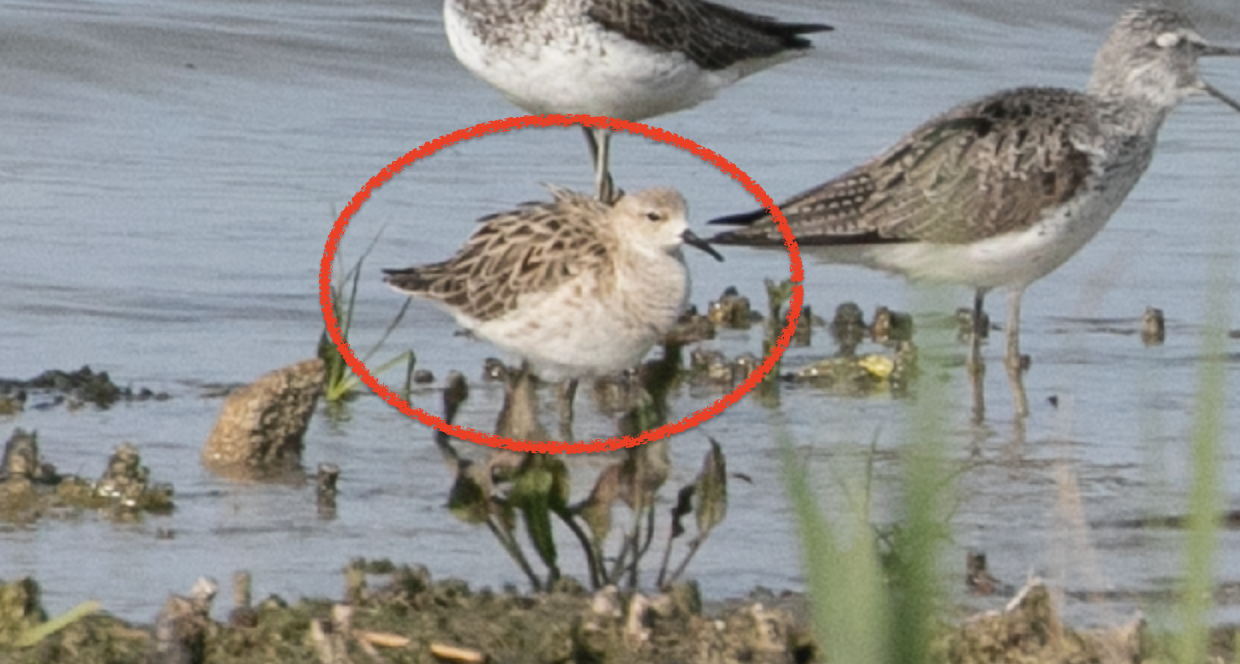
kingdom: Animalia
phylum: Chordata
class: Aves
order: Charadriiformes
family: Scolopacidae
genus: Calidris
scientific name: Calidris pugnax
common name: Ruff
